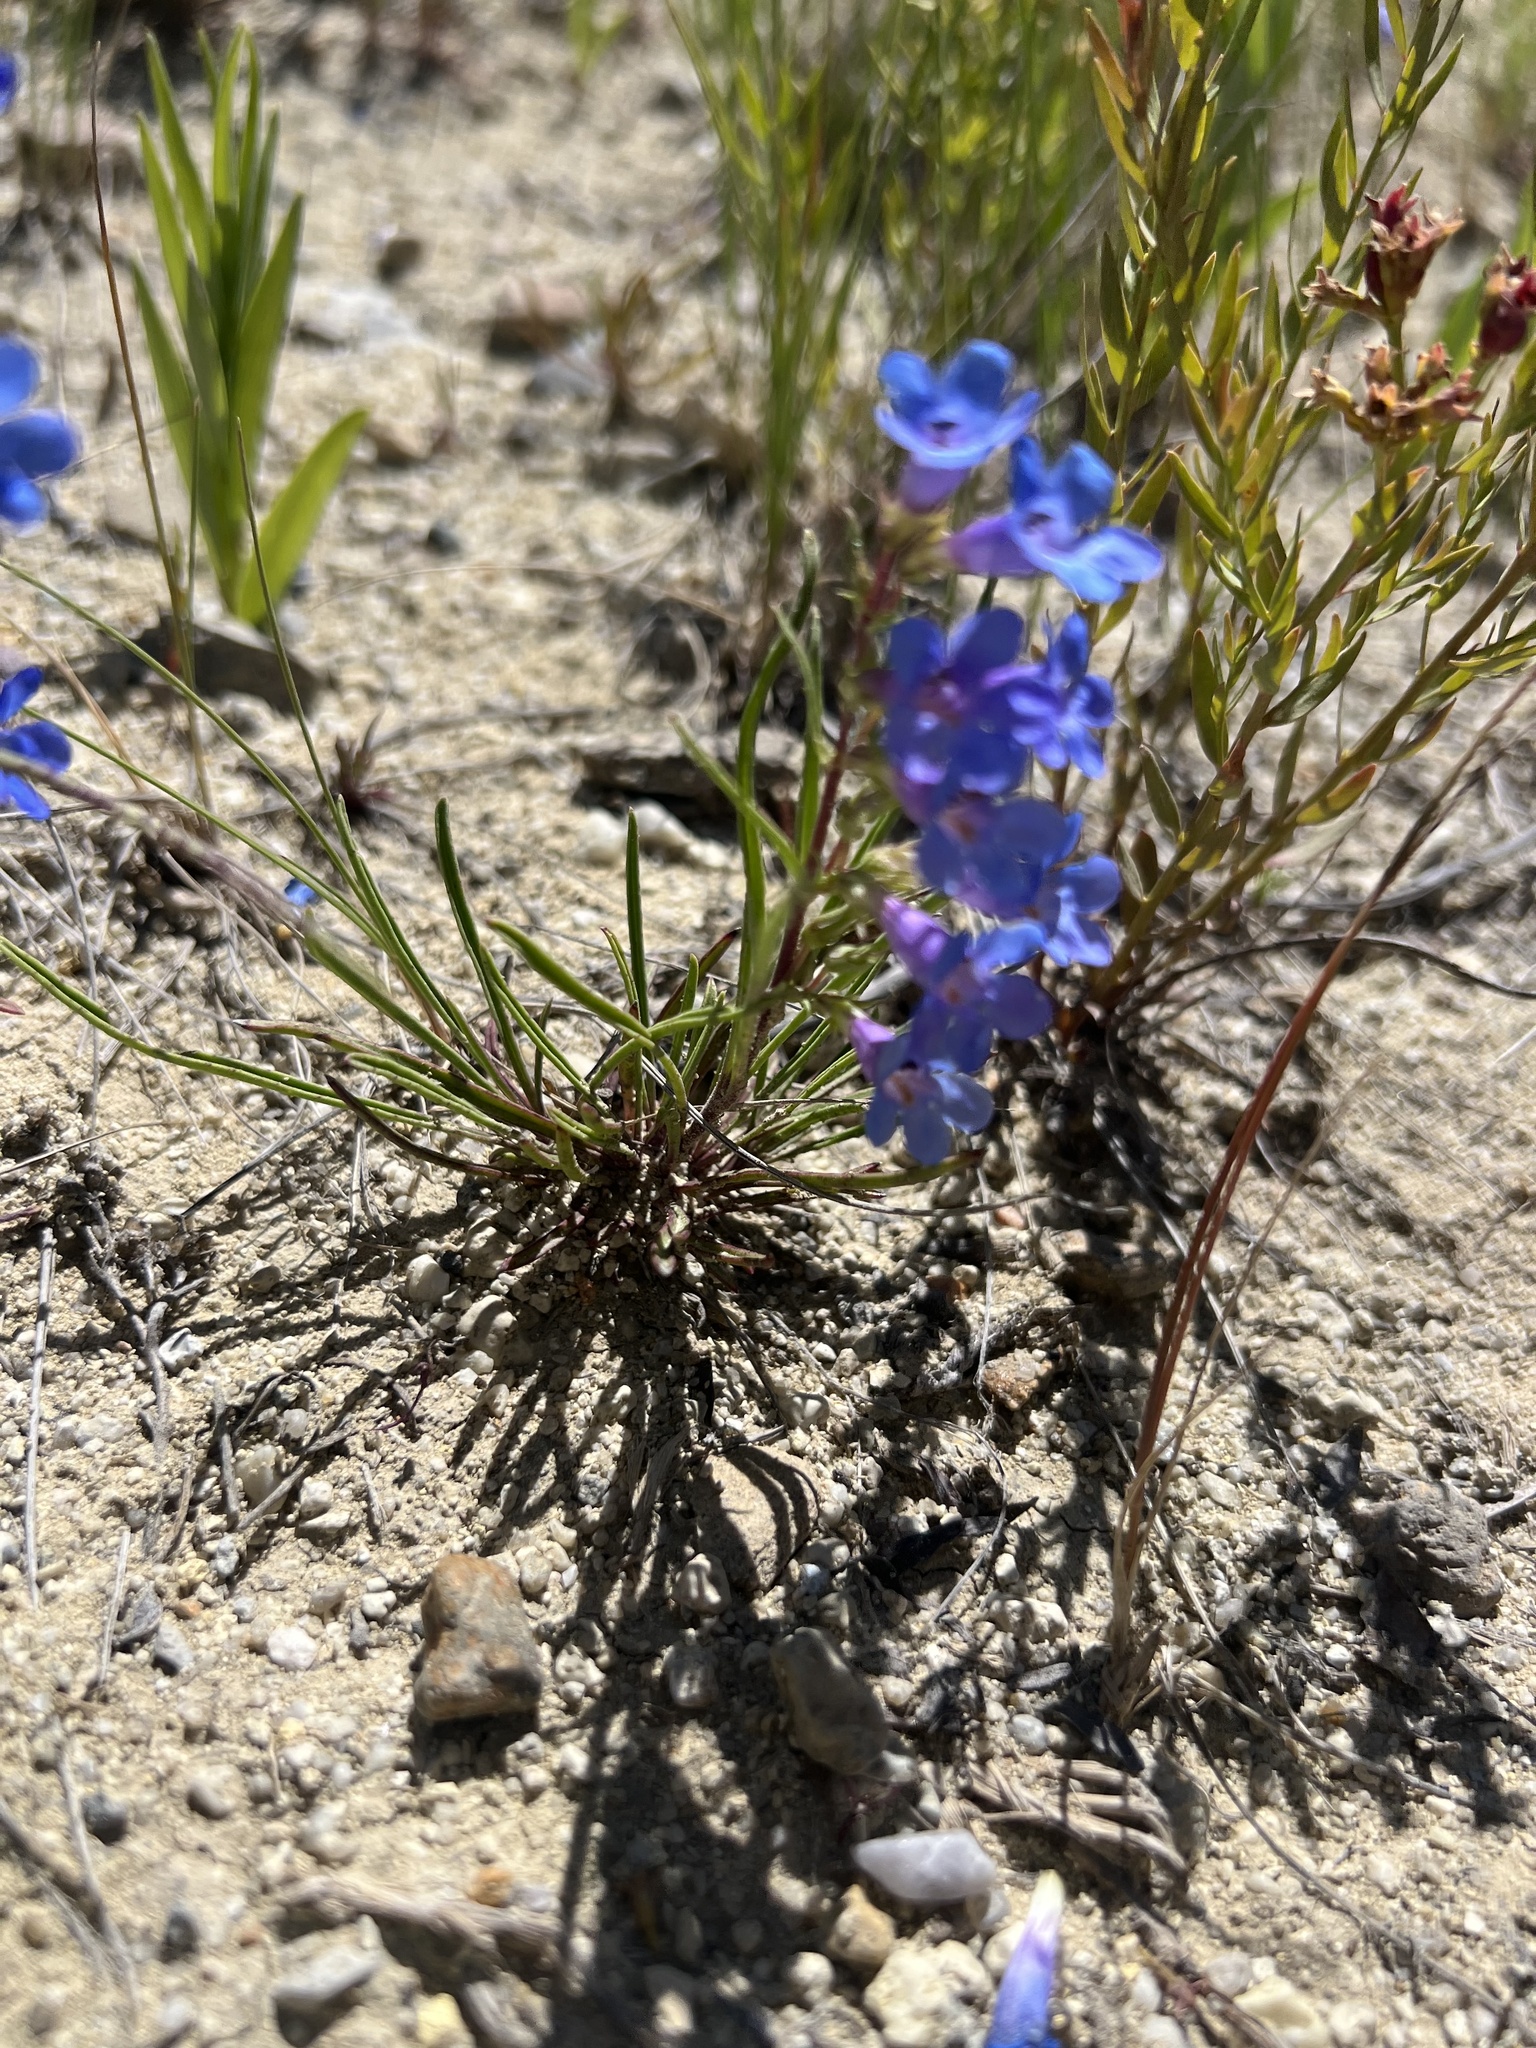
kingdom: Plantae
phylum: Tracheophyta
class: Magnoliopsida
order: Lamiales
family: Plantaginaceae
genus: Penstemon
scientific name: Penstemon penlandii
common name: Penland's beardtongue
